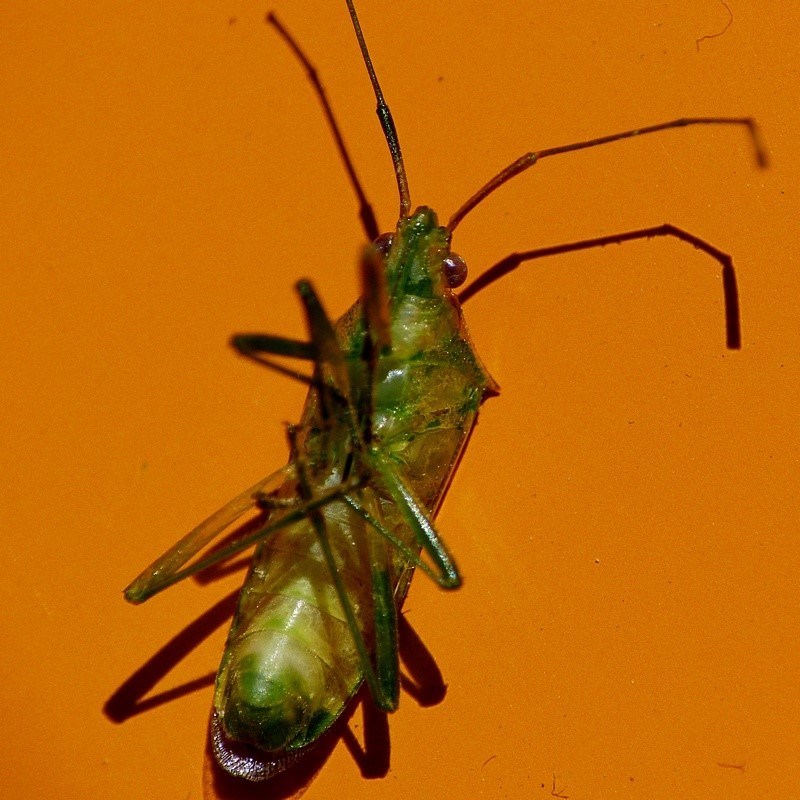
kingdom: Animalia
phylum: Arthropoda
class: Insecta
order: Hemiptera
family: Coreidae
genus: Amblypelta
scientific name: Amblypelta nitida
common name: Fruitspotting bug
